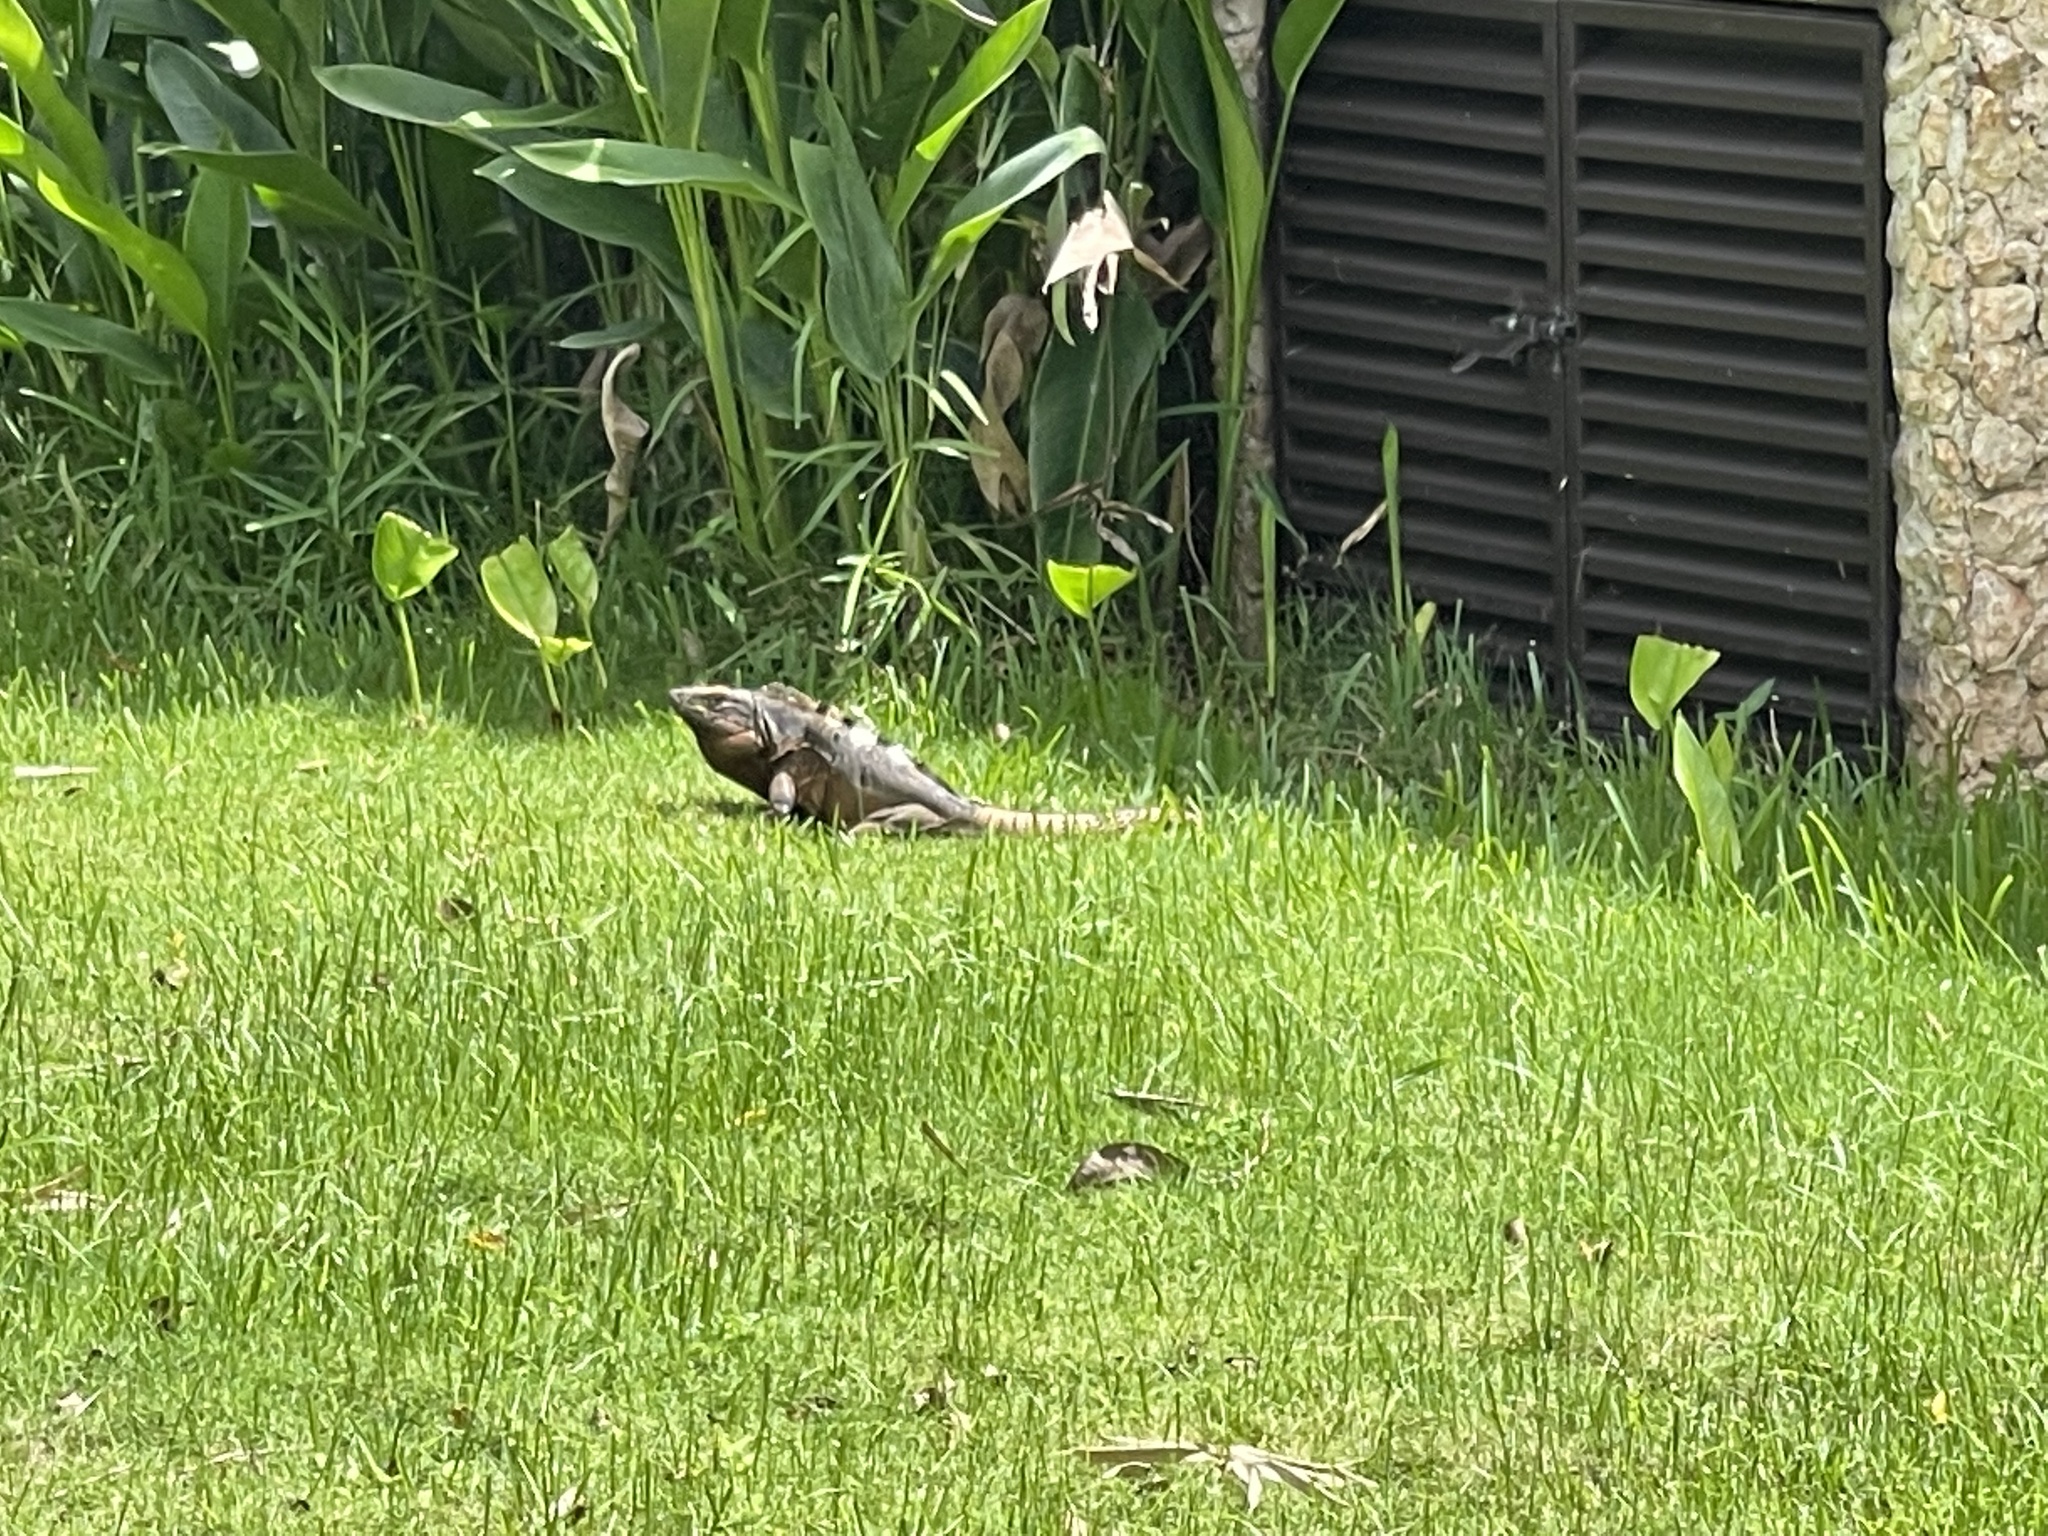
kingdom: Animalia
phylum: Chordata
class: Squamata
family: Iguanidae
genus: Ctenosaura
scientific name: Ctenosaura similis
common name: Black spiny-tailed iguana
